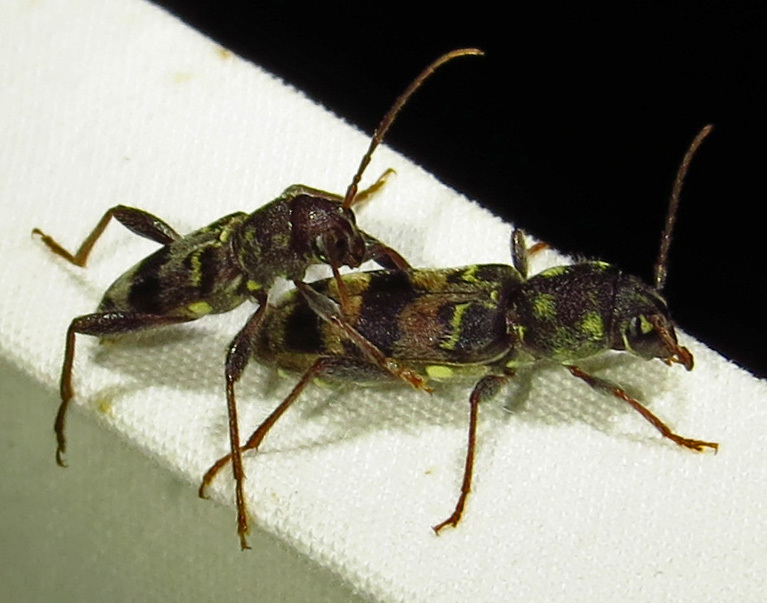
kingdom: Animalia
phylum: Arthropoda
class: Insecta
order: Coleoptera
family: Cerambycidae
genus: Xylotrechus
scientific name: Xylotrechus colonus
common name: Long-horned beetle
